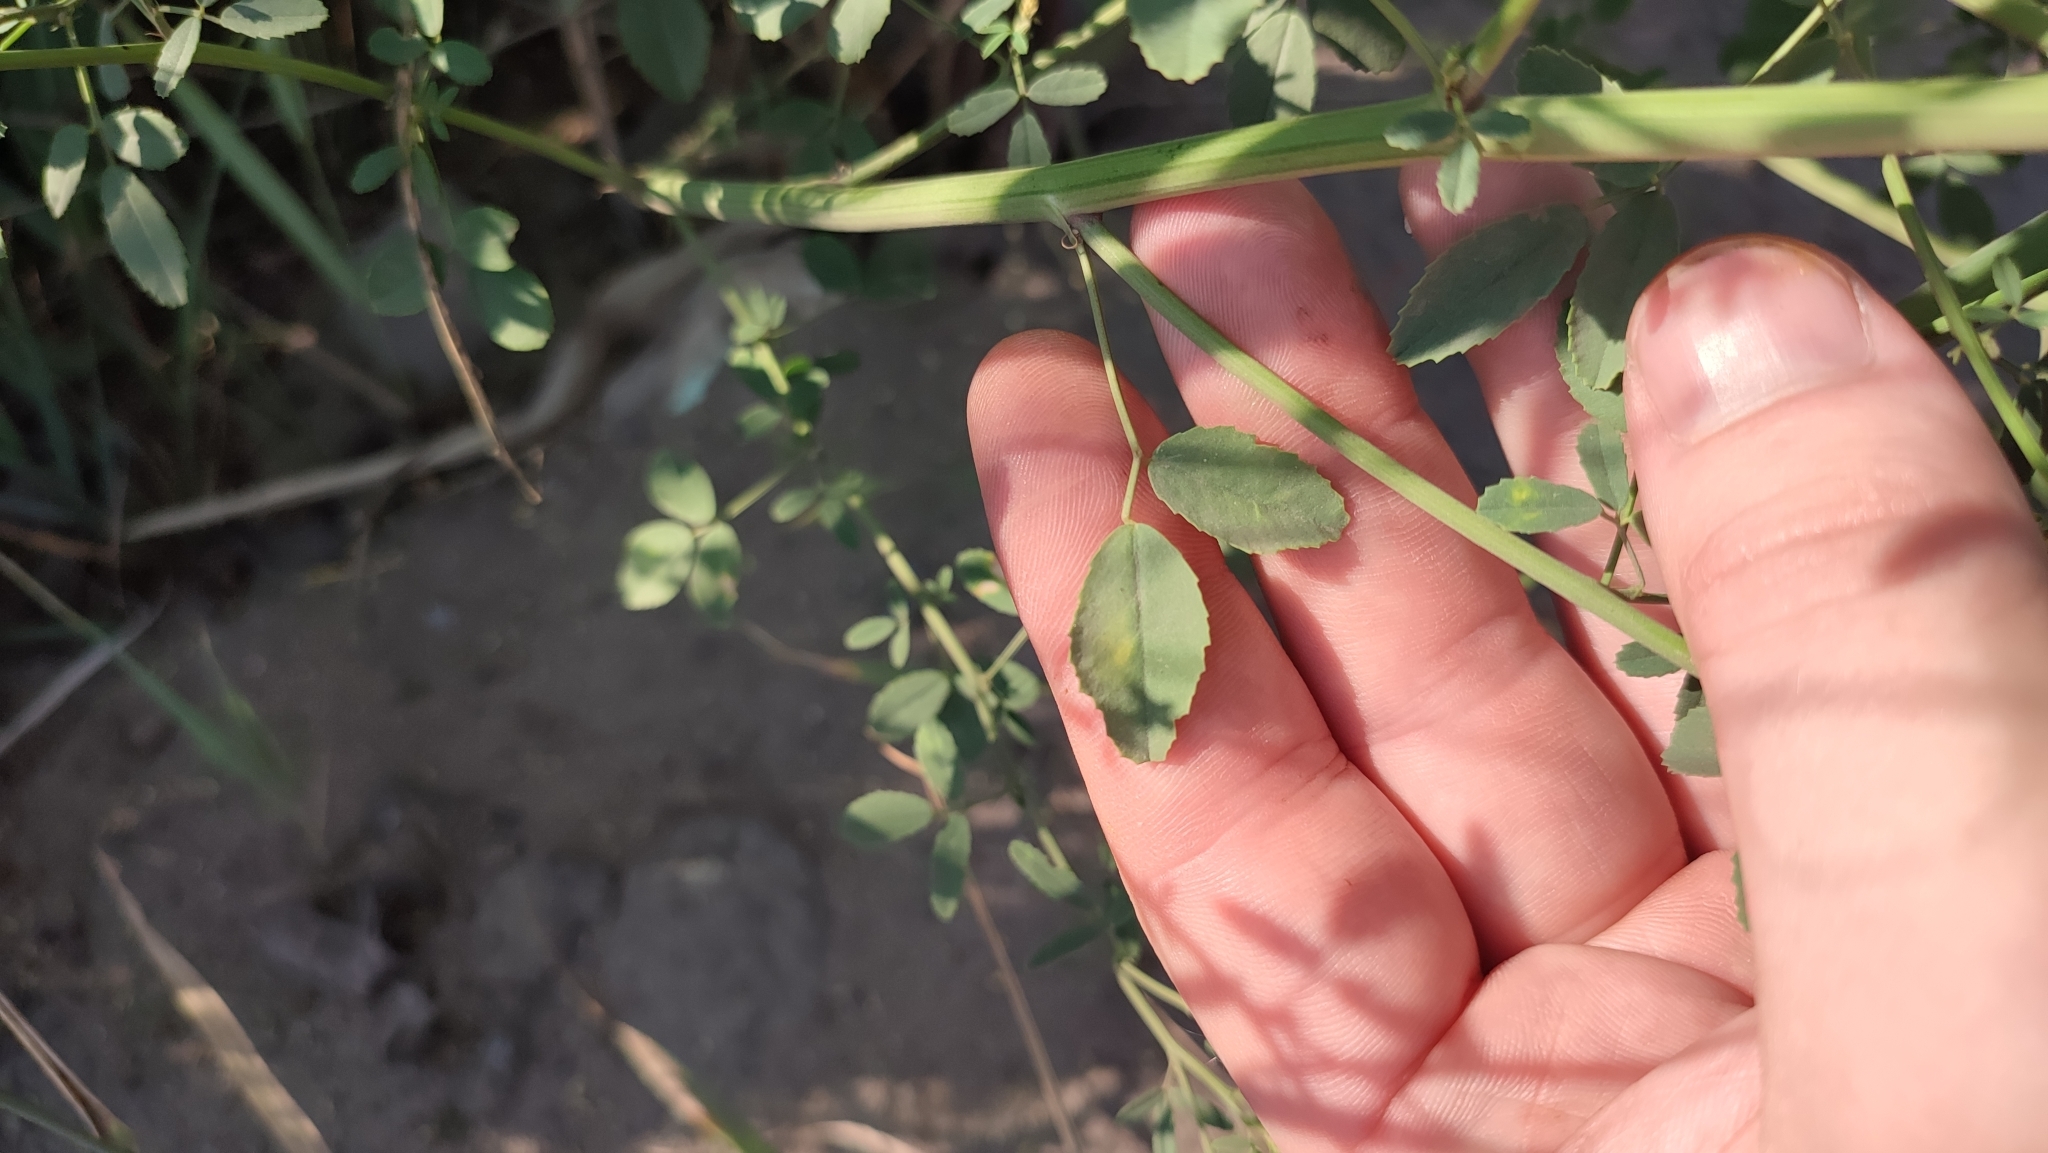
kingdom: Plantae
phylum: Tracheophyta
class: Magnoliopsida
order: Fabales
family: Fabaceae
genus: Melilotus
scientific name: Melilotus officinalis
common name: Sweetclover
